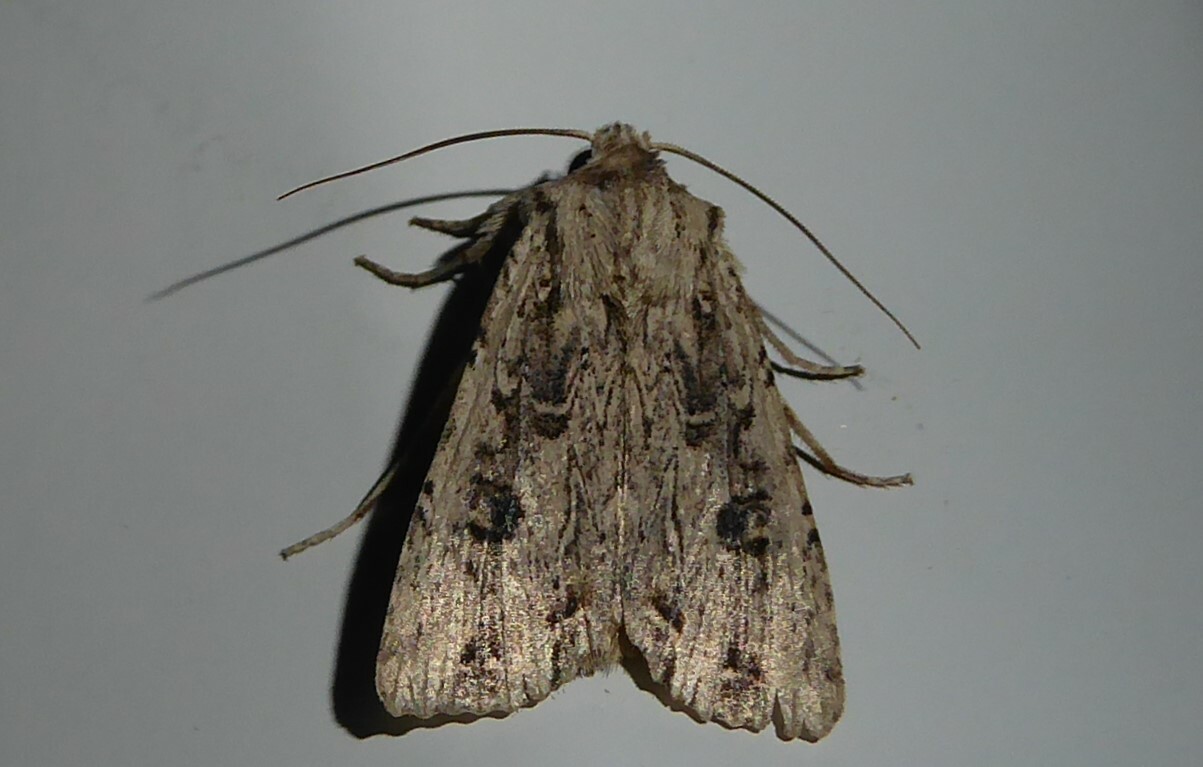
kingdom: Animalia
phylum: Arthropoda
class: Insecta
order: Lepidoptera
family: Noctuidae
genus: Ichneutica
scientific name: Ichneutica lignana
